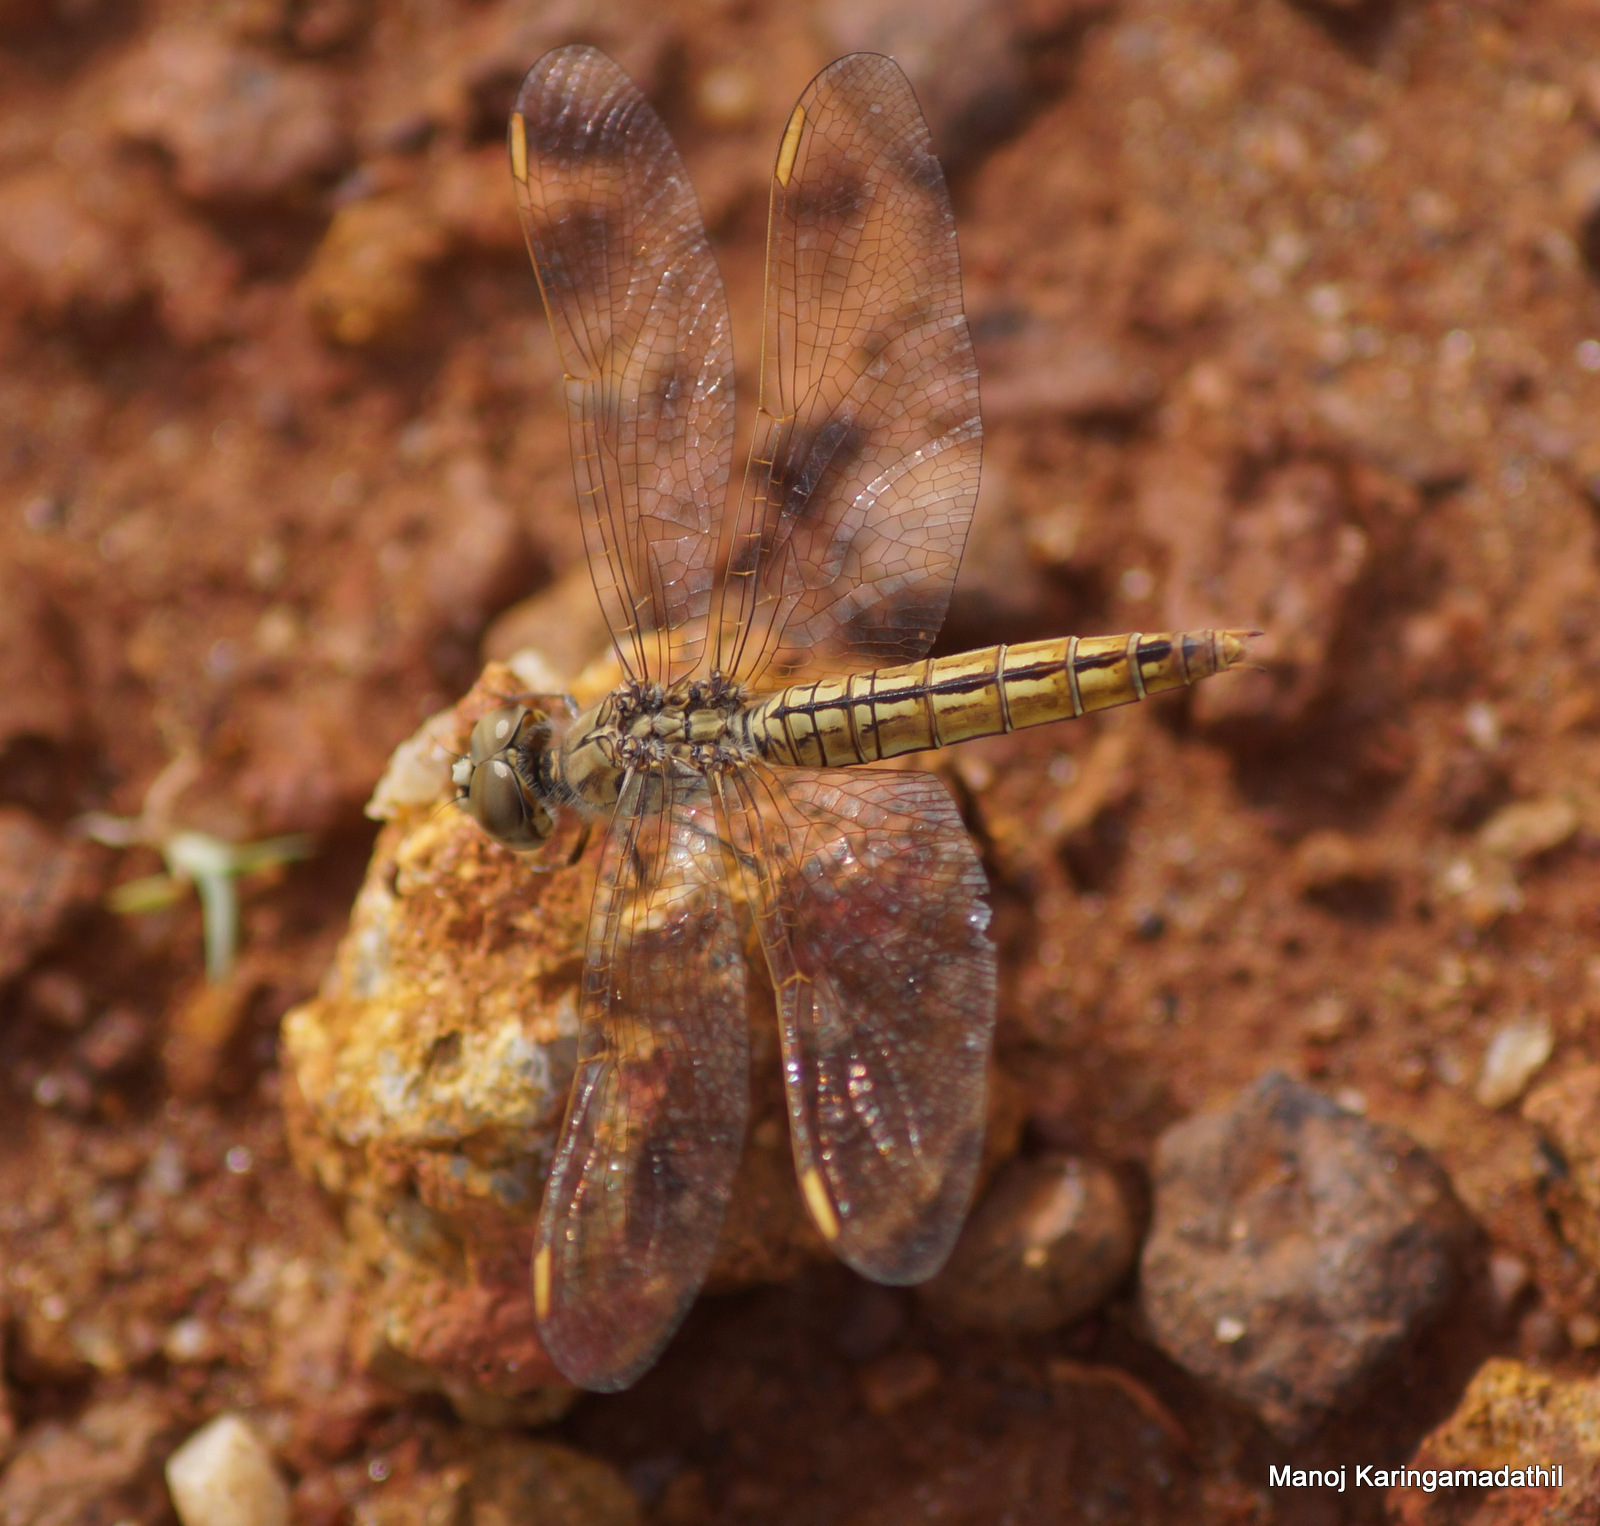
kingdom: Animalia
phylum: Arthropoda
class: Insecta
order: Odonata
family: Libellulidae
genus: Brachythemis
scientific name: Brachythemis contaminata
